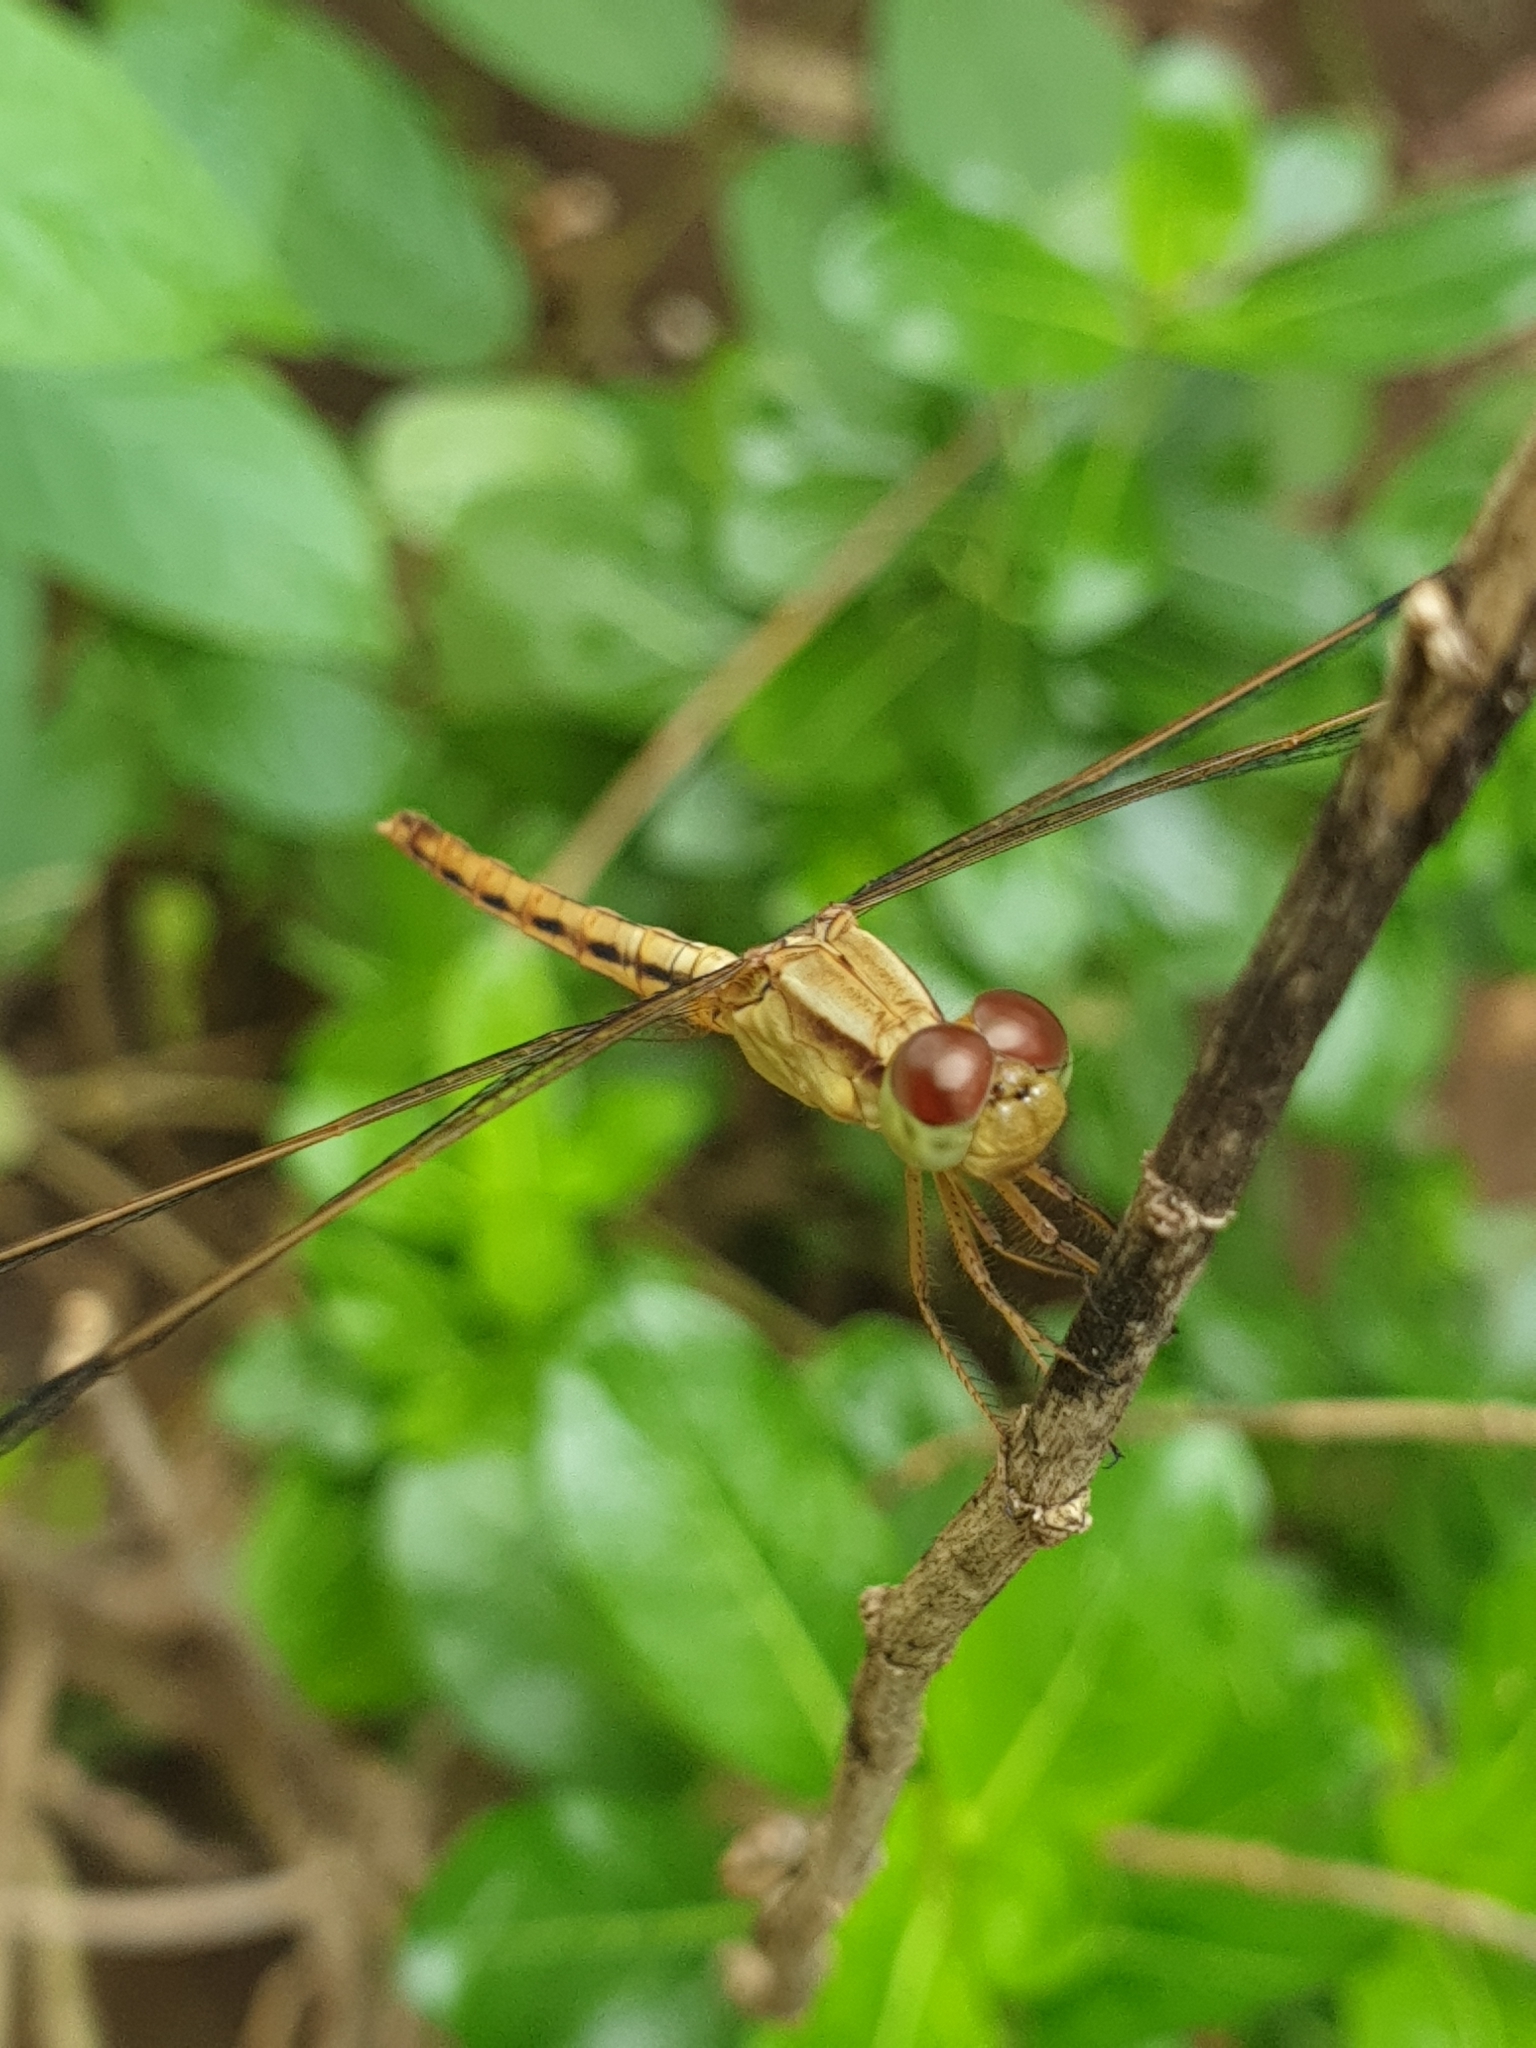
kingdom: Animalia
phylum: Arthropoda
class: Insecta
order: Odonata
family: Libellulidae
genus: Neurothemis
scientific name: Neurothemis intermedia
